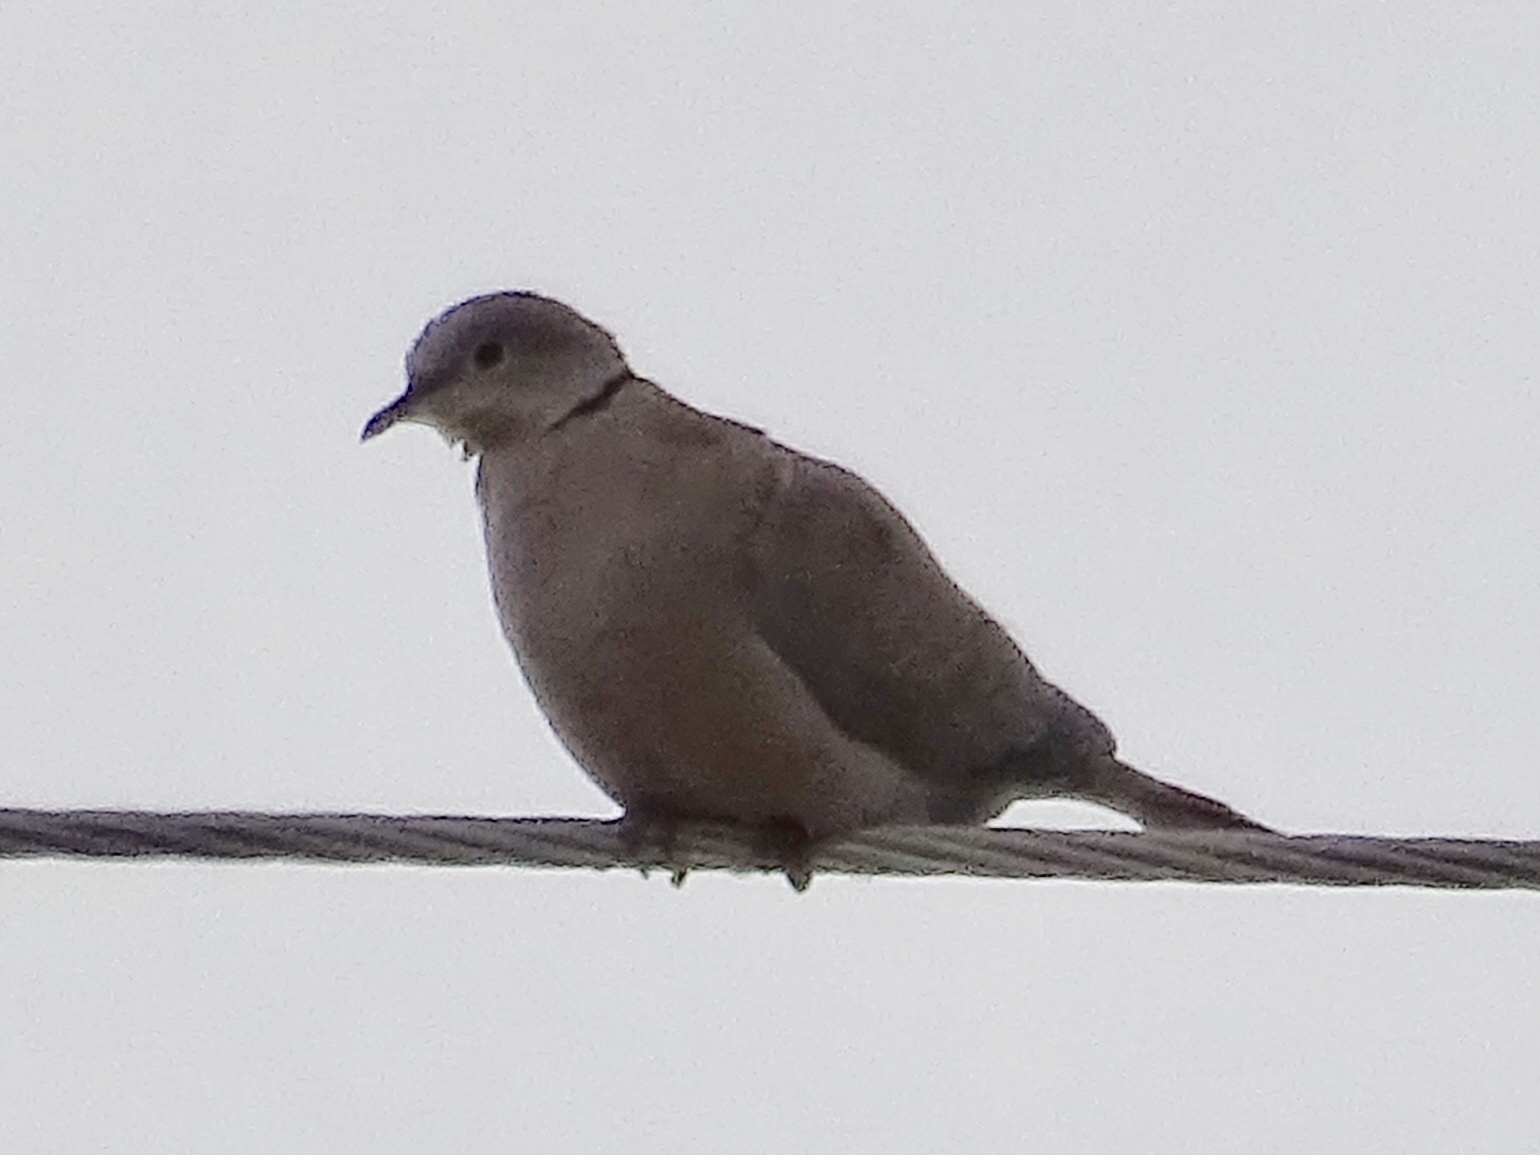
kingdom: Animalia
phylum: Chordata
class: Aves
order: Columbiformes
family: Columbidae
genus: Streptopelia
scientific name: Streptopelia decaocto
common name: Eurasian collared dove
